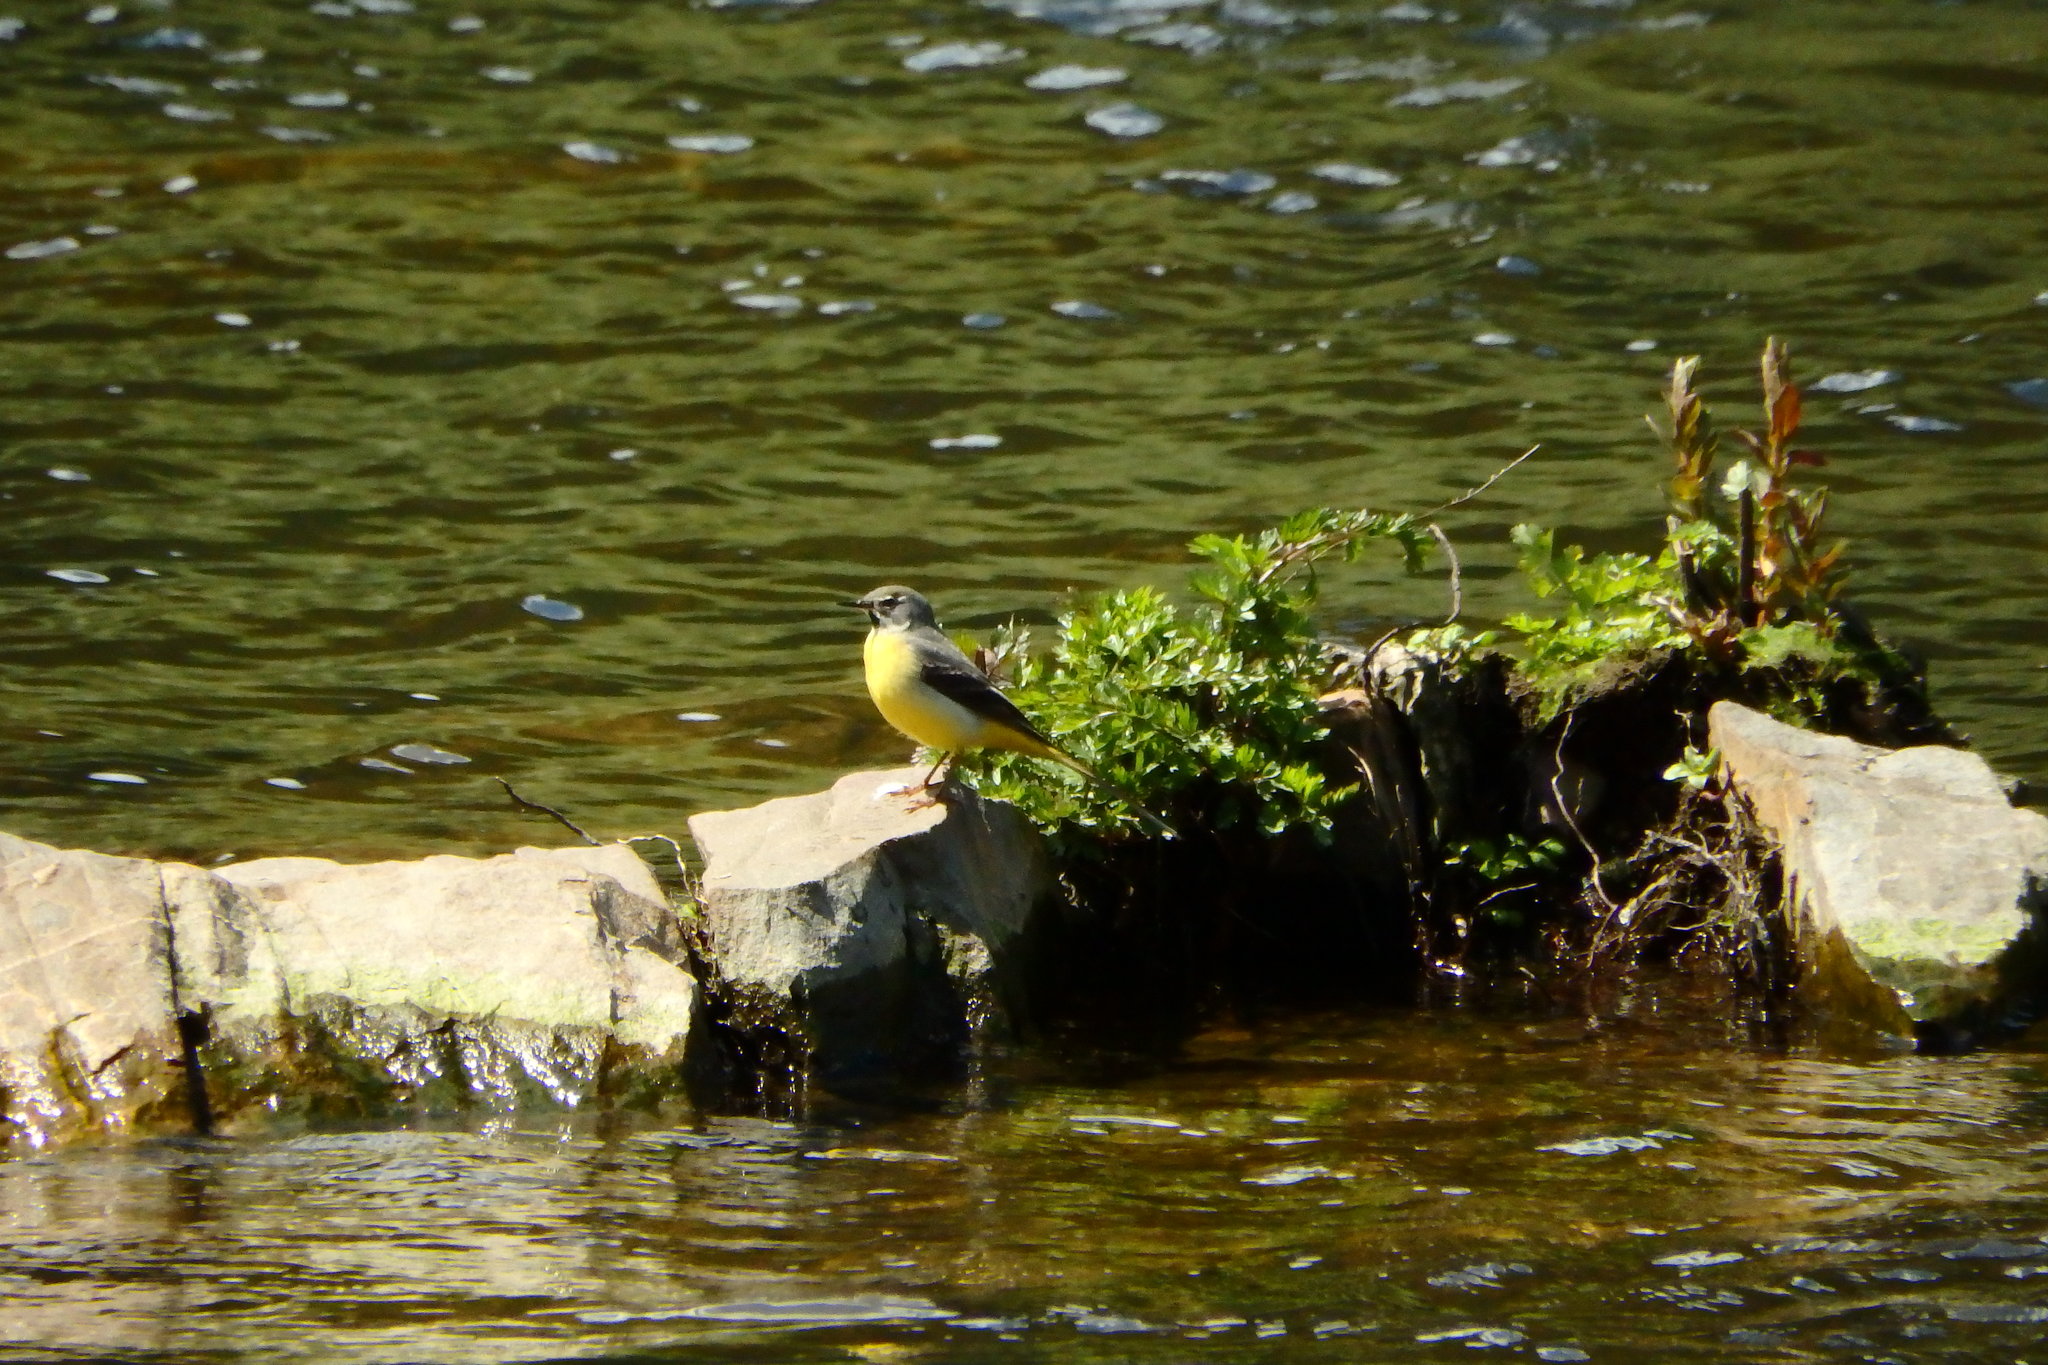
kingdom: Animalia
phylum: Chordata
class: Aves
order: Passeriformes
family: Motacillidae
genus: Motacilla
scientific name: Motacilla cinerea
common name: Grey wagtail
